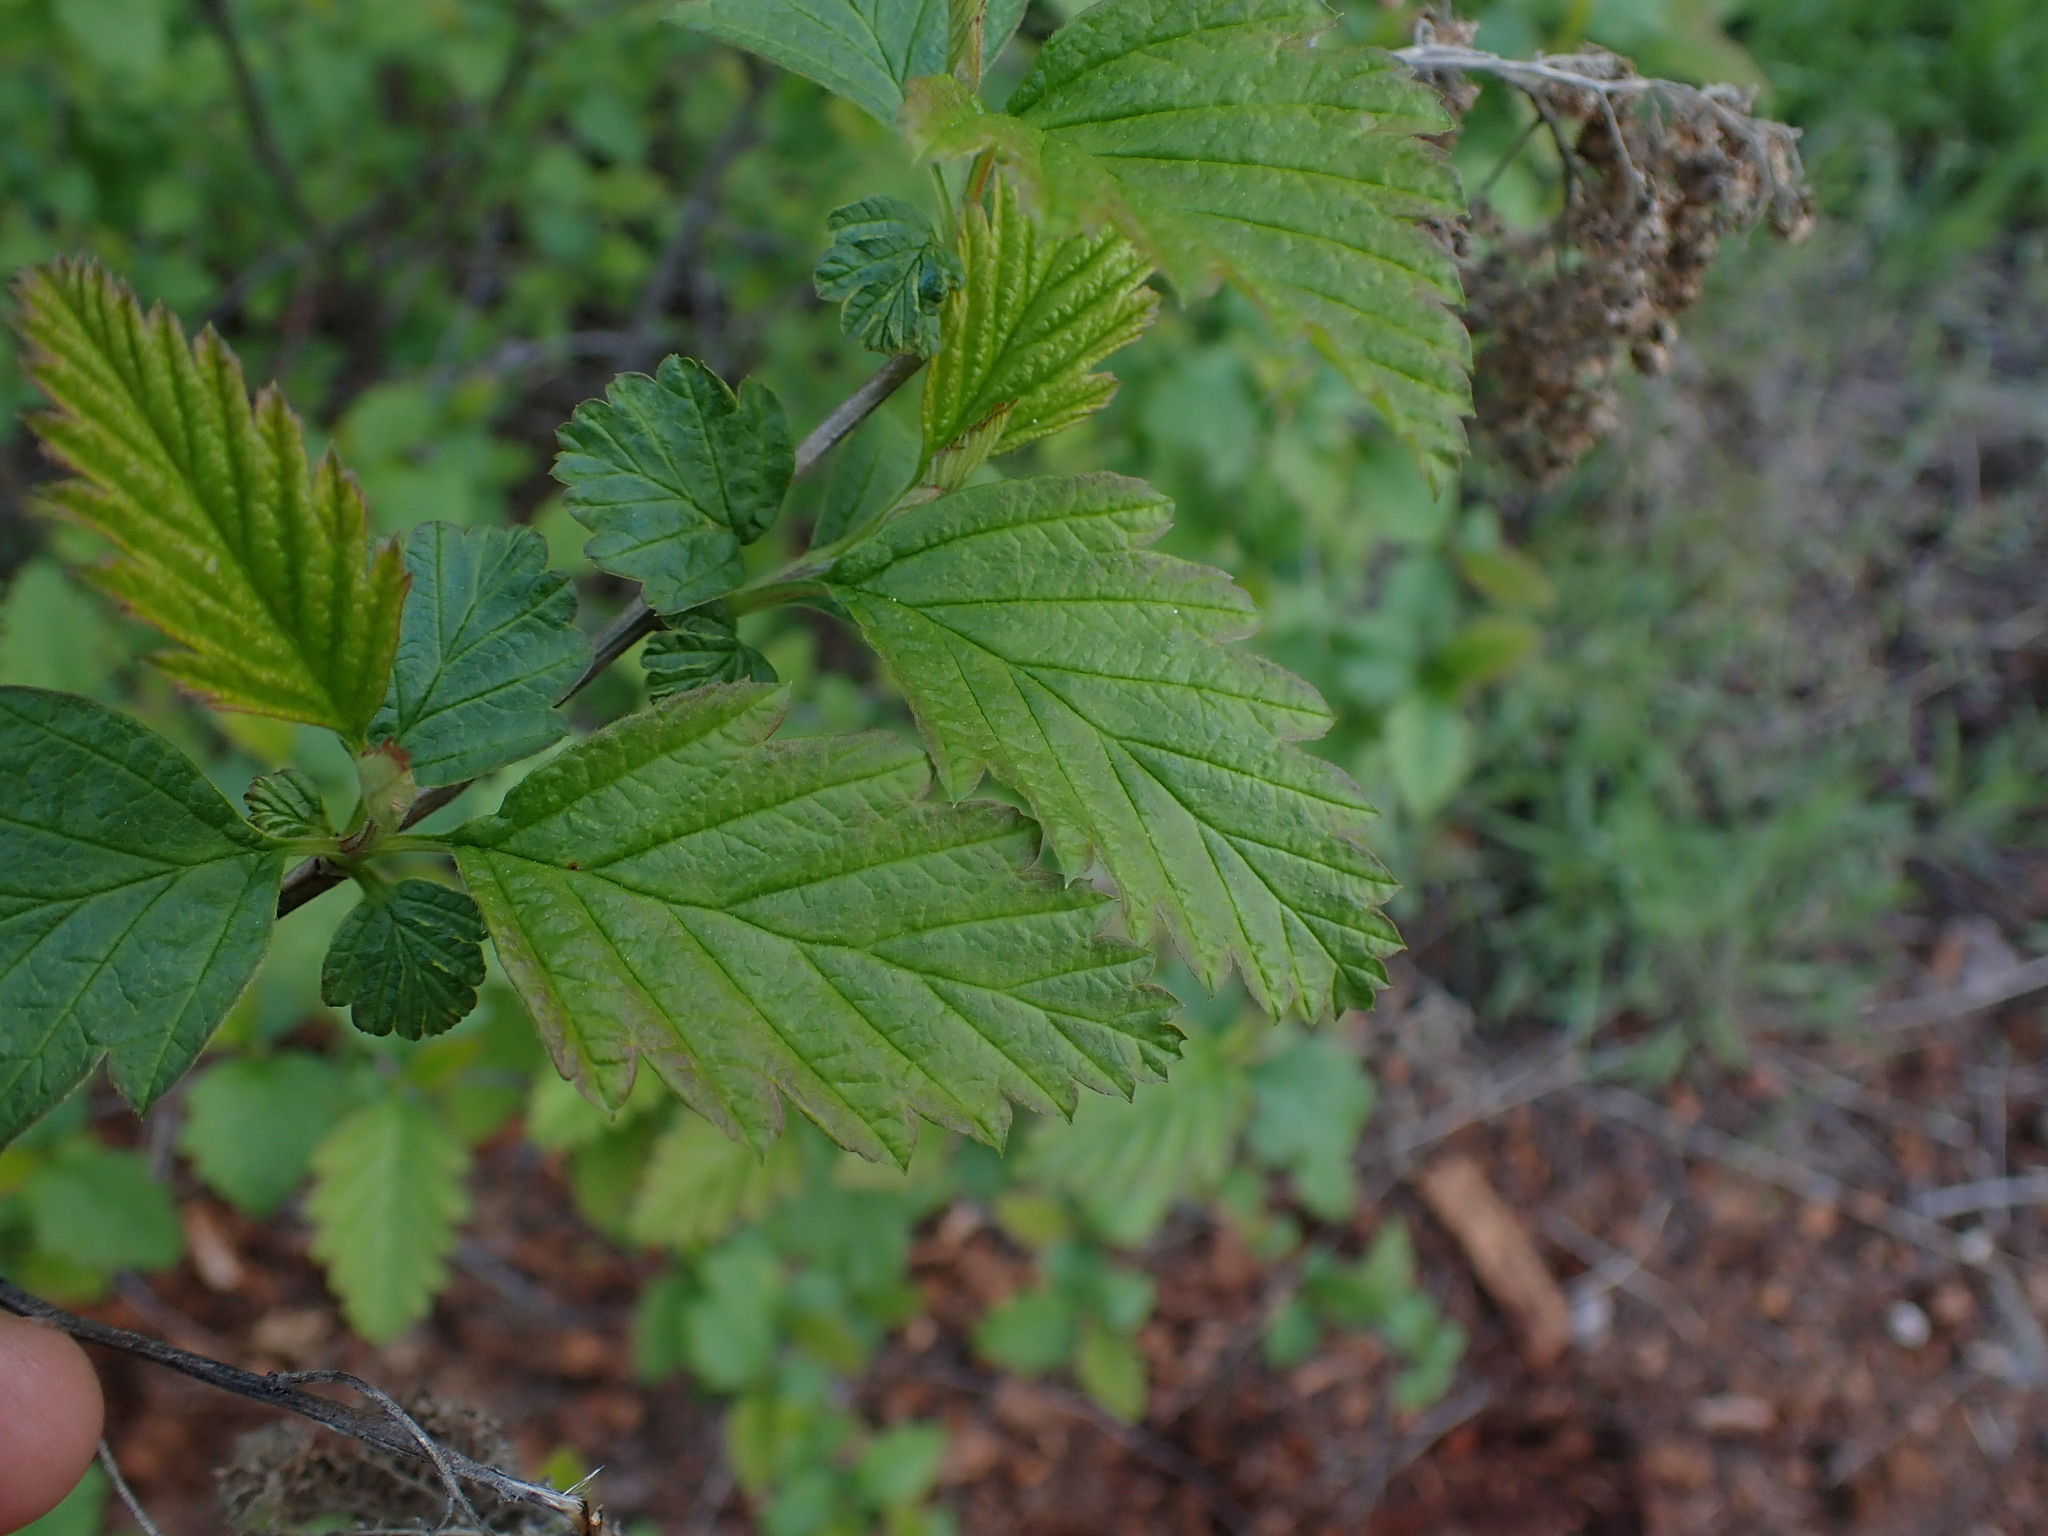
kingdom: Plantae
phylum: Tracheophyta
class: Magnoliopsida
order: Rosales
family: Rosaceae
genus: Holodiscus
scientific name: Holodiscus discolor
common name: Oceanspray
